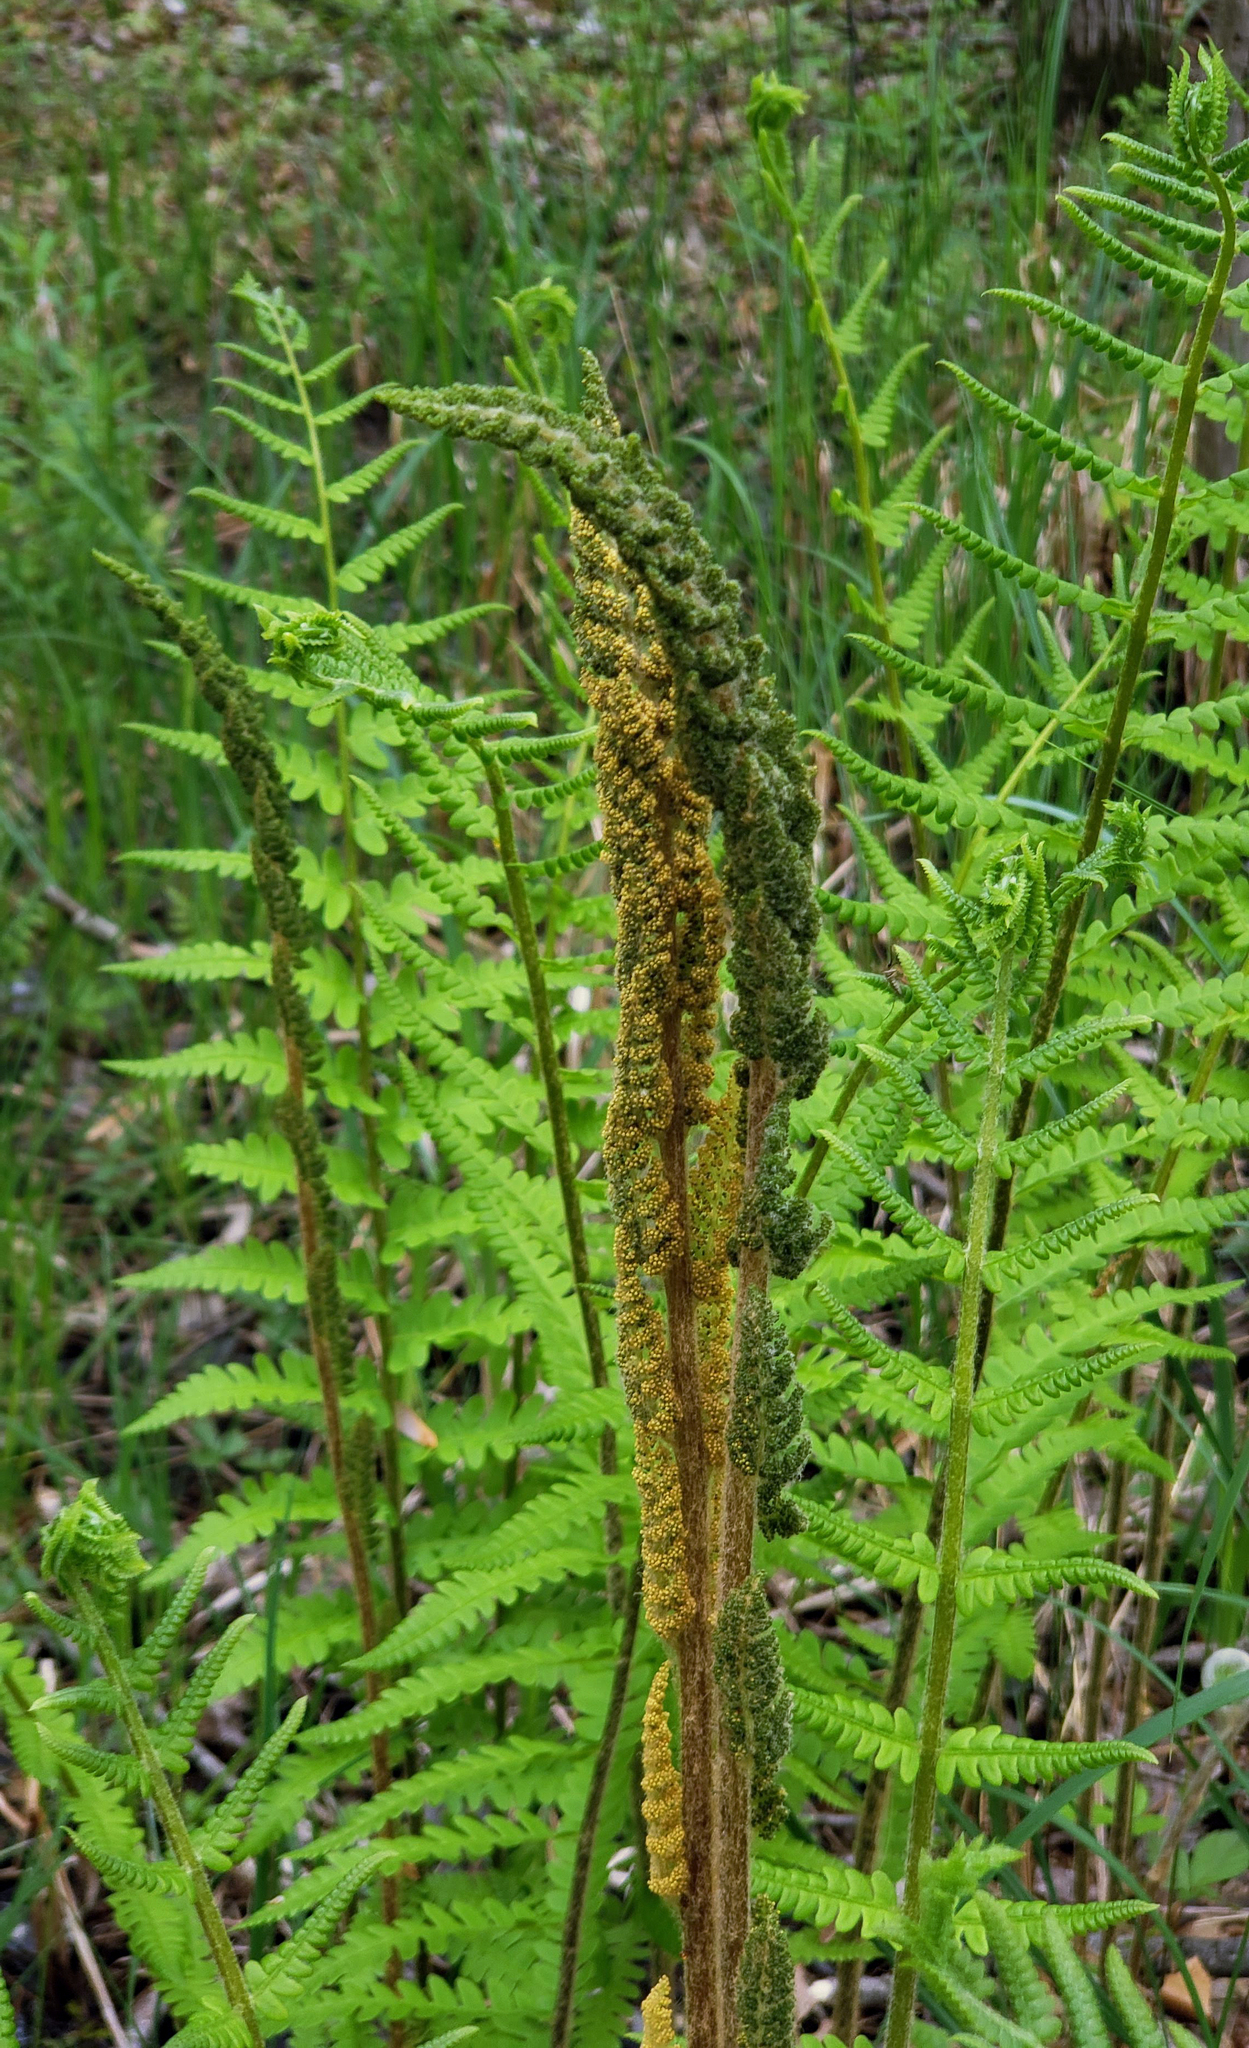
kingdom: Plantae
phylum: Tracheophyta
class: Polypodiopsida
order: Osmundales
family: Osmundaceae
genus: Osmundastrum
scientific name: Osmundastrum cinnamomeum
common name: Cinnamon fern
